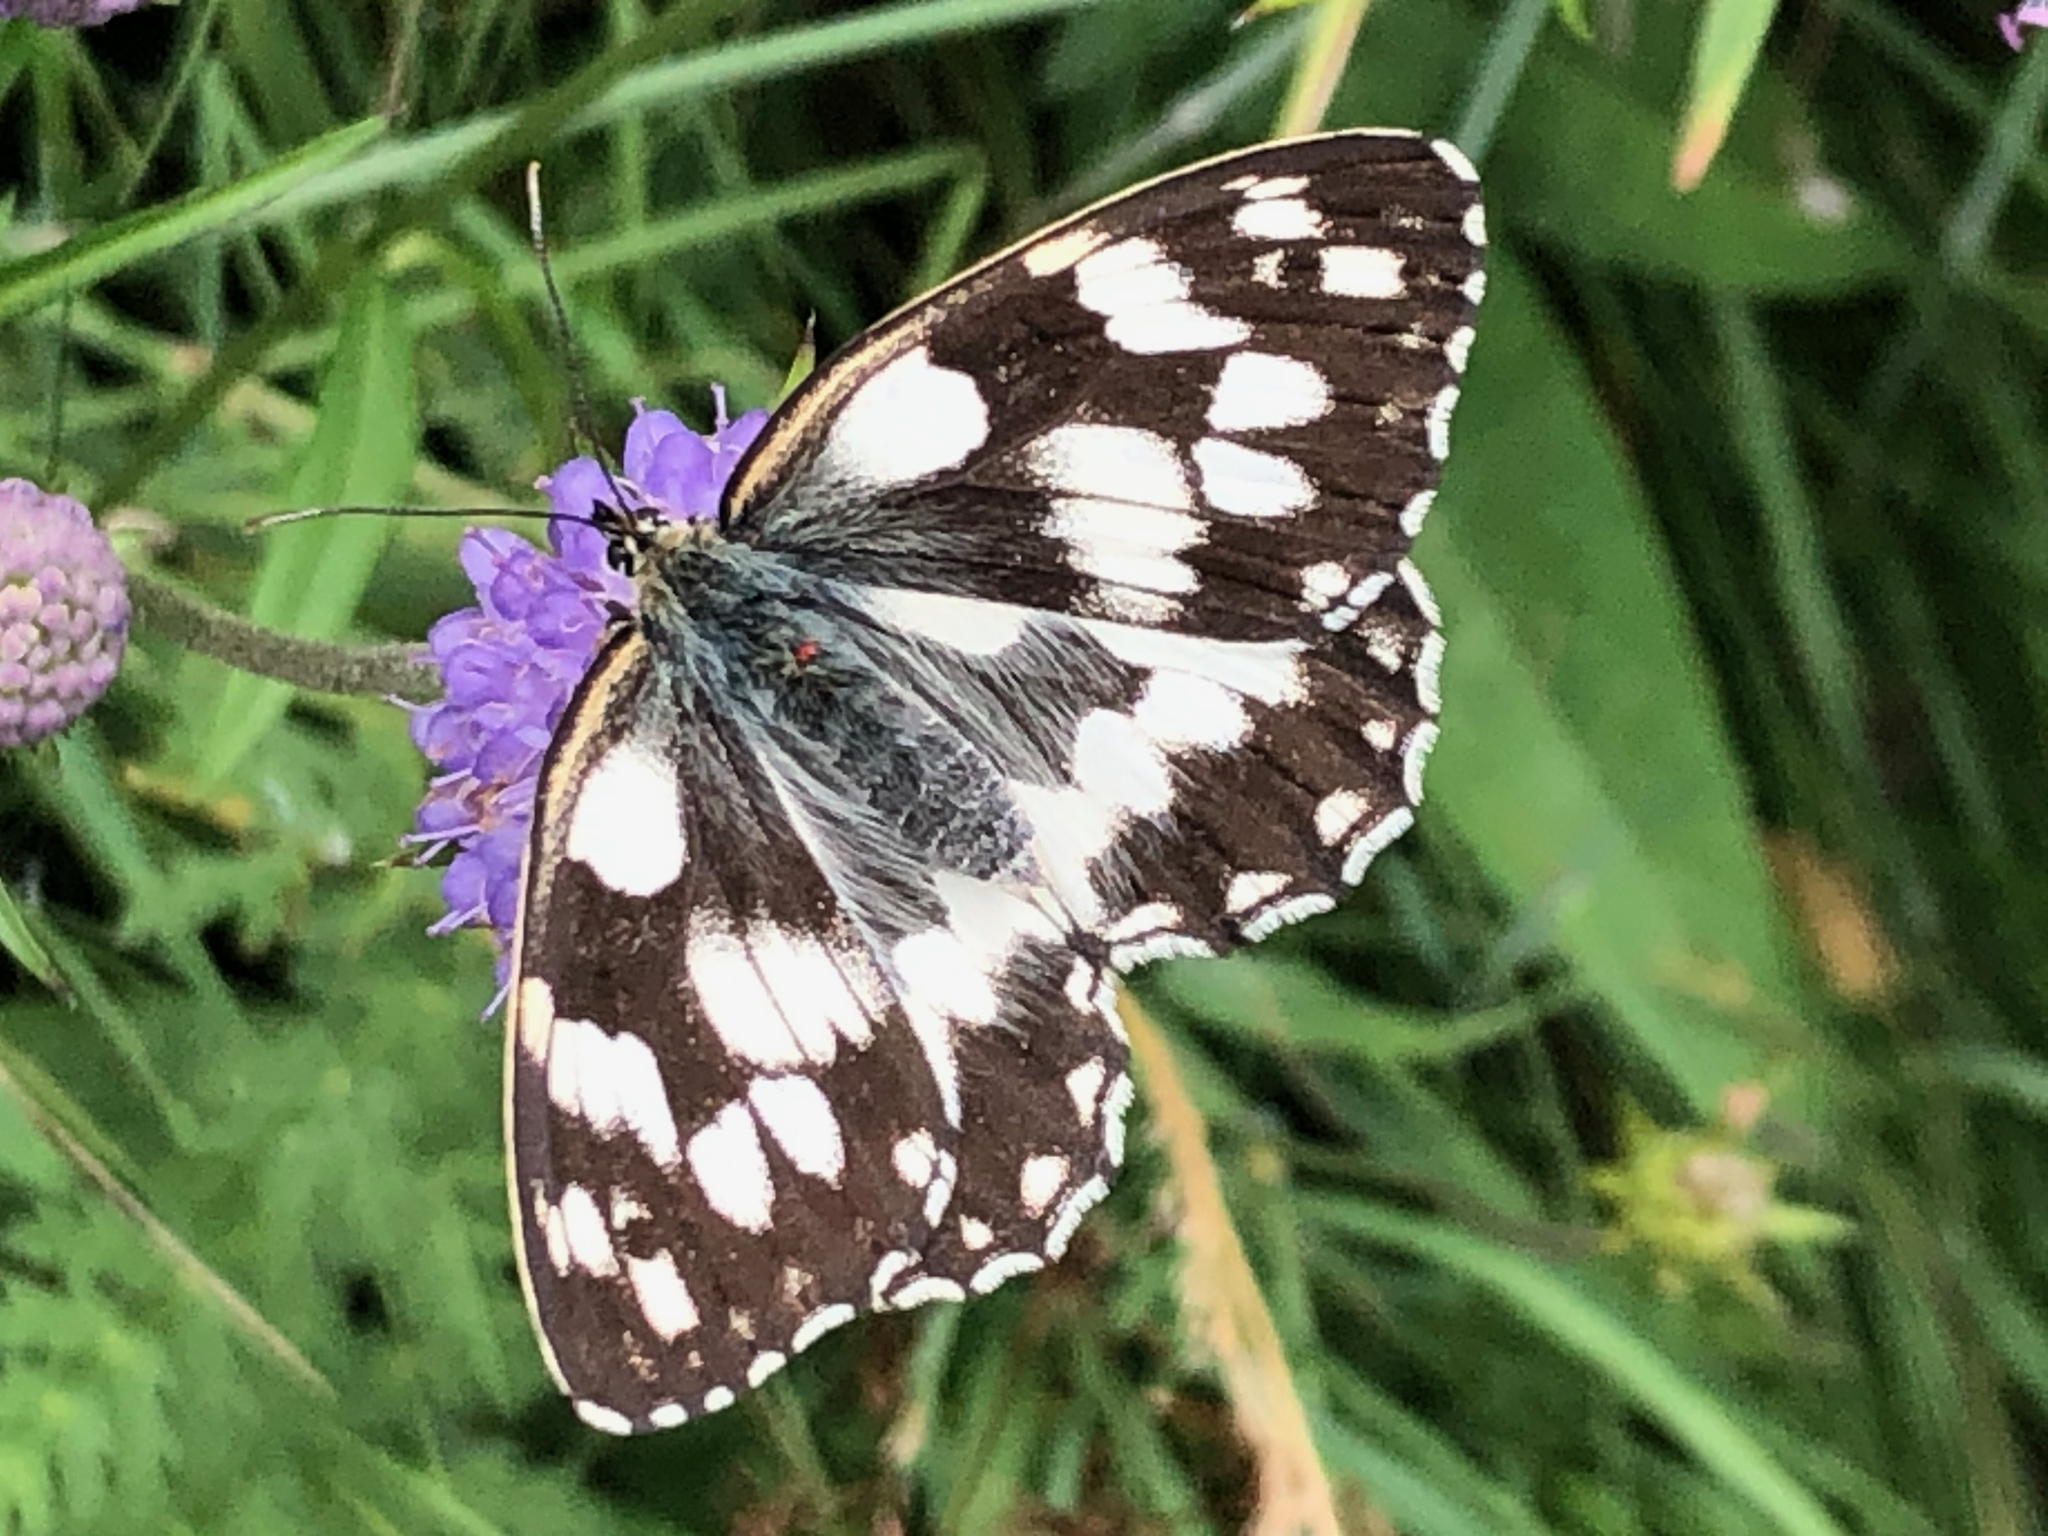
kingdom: Animalia
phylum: Arthropoda
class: Insecta
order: Lepidoptera
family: Nymphalidae
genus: Melanargia
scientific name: Melanargia galathea
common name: Marbled white
